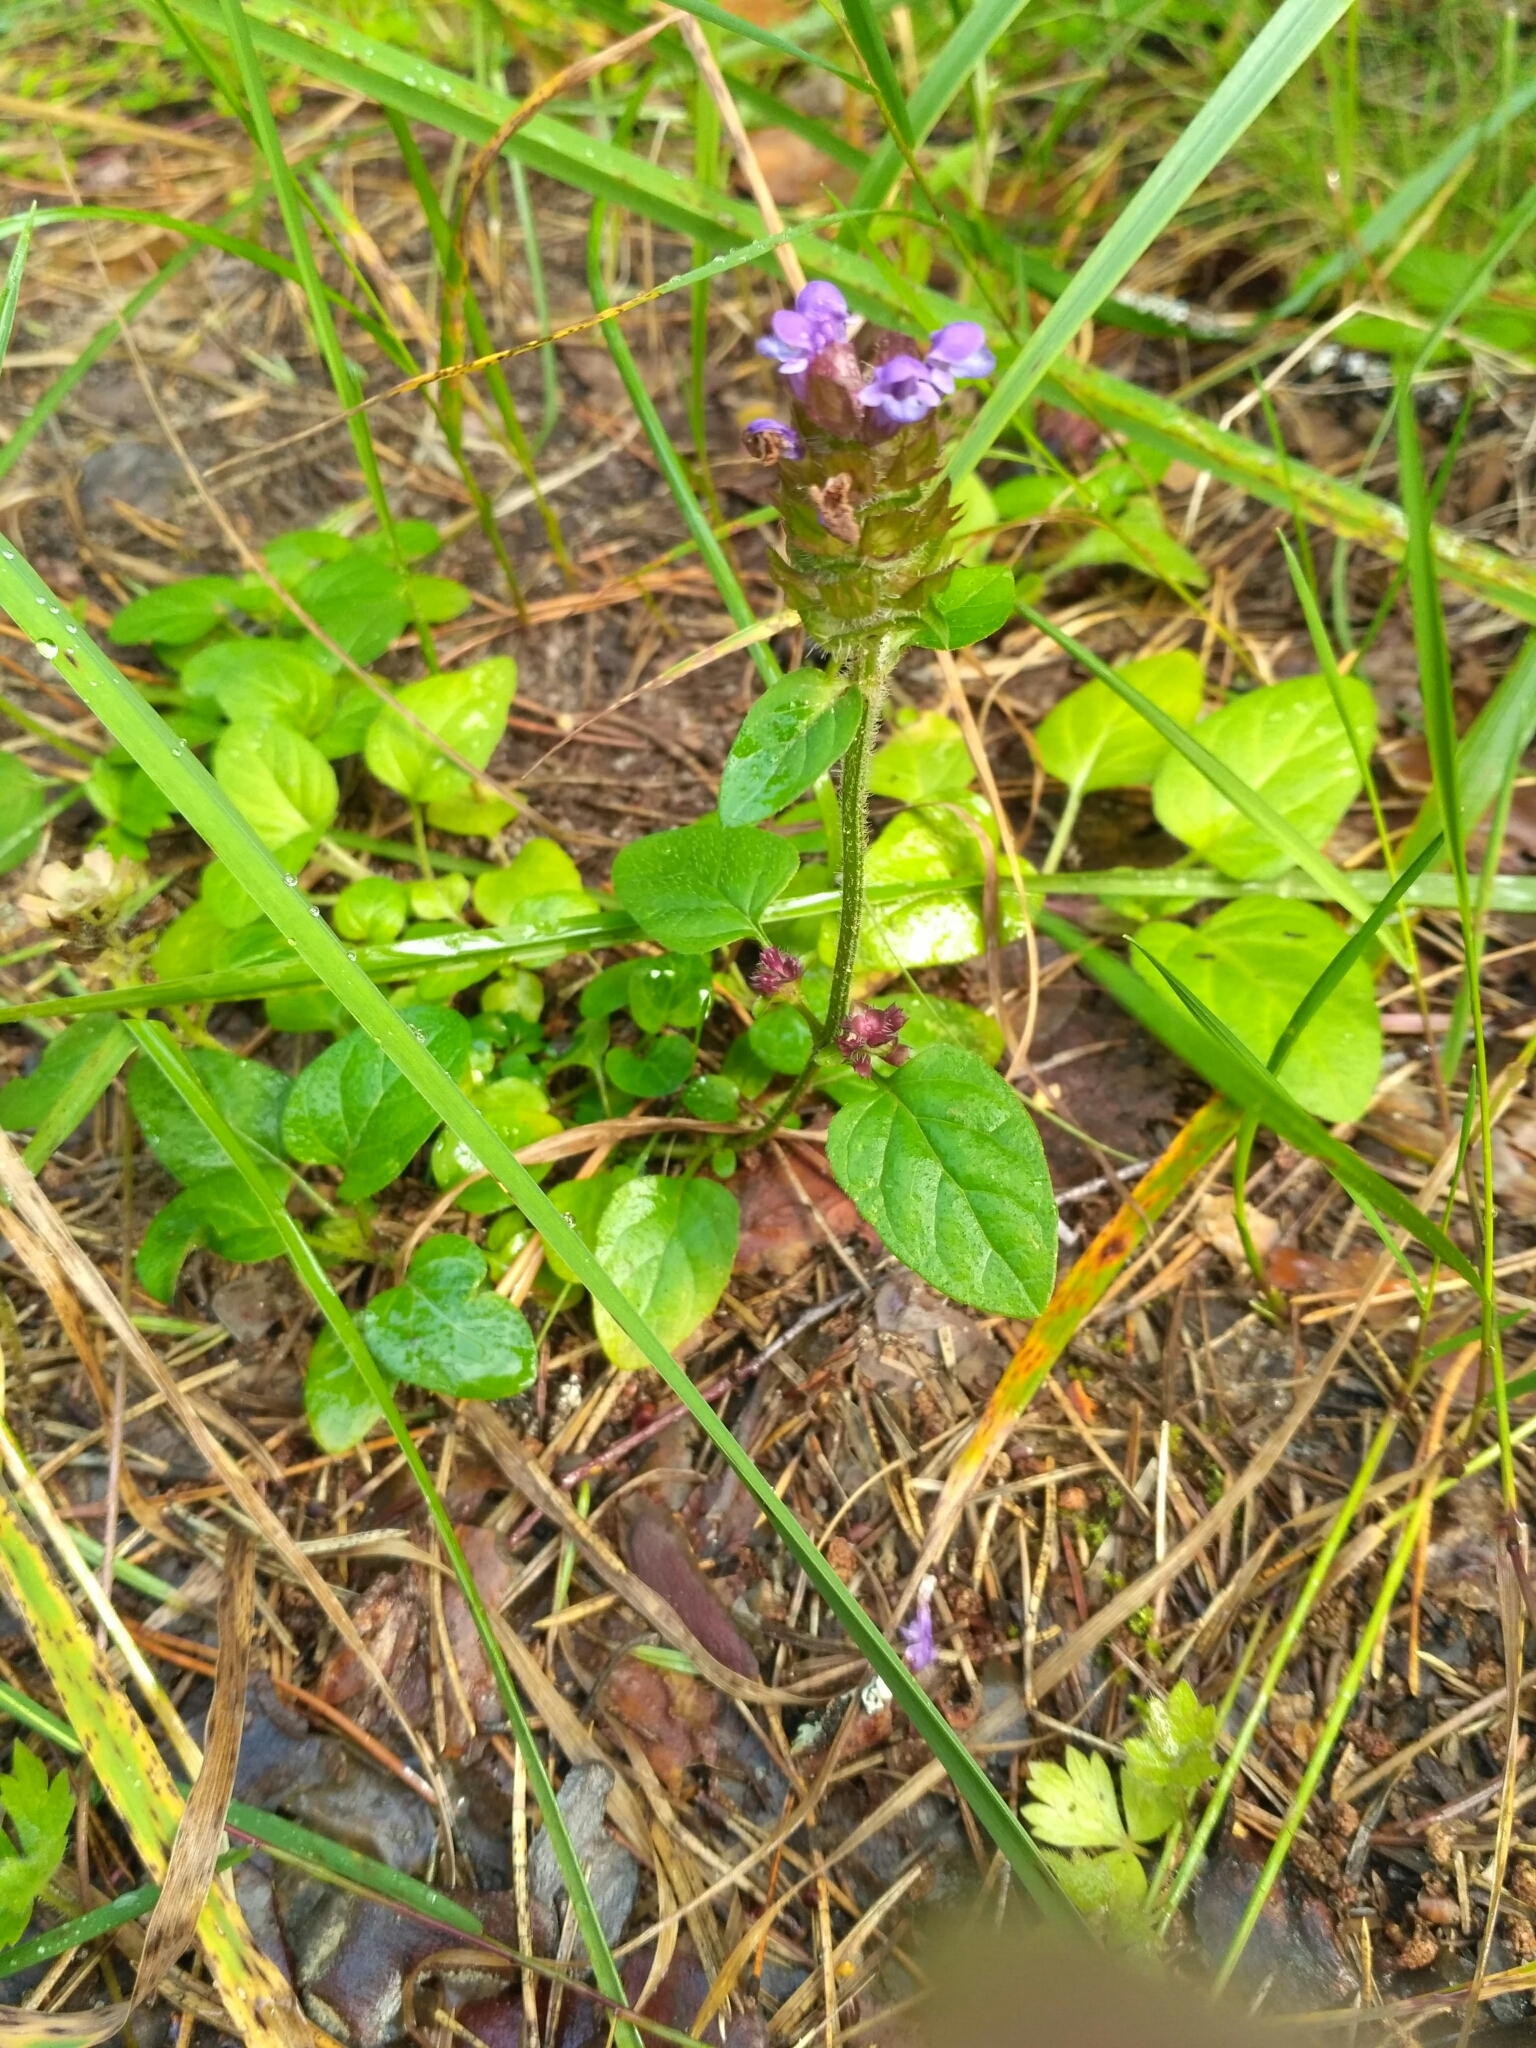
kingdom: Plantae
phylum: Tracheophyta
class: Magnoliopsida
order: Lamiales
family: Lamiaceae
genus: Prunella
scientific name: Prunella vulgaris
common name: Heal-all
